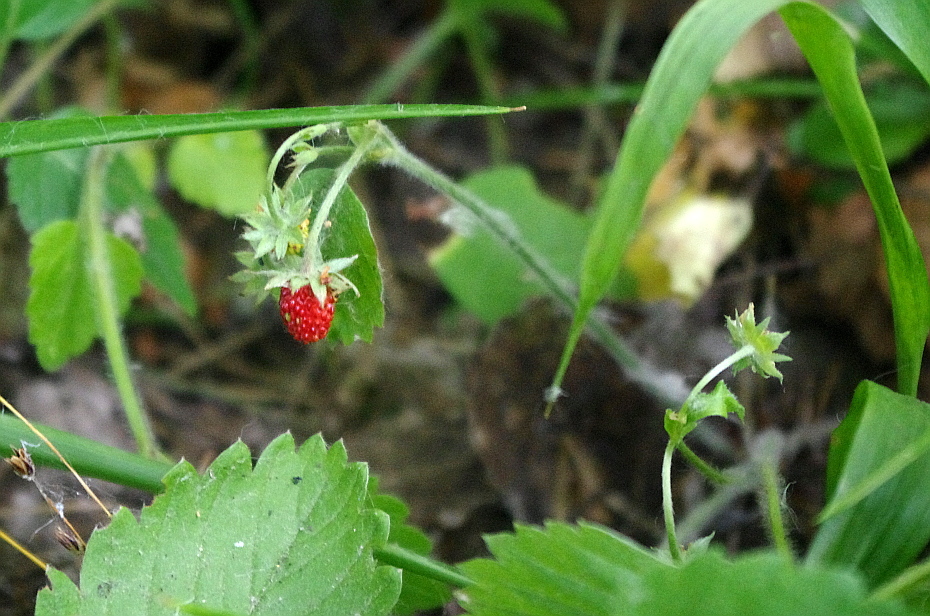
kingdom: Plantae
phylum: Tracheophyta
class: Magnoliopsida
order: Rosales
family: Rosaceae
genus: Fragaria
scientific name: Fragaria vesca
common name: Wild strawberry
